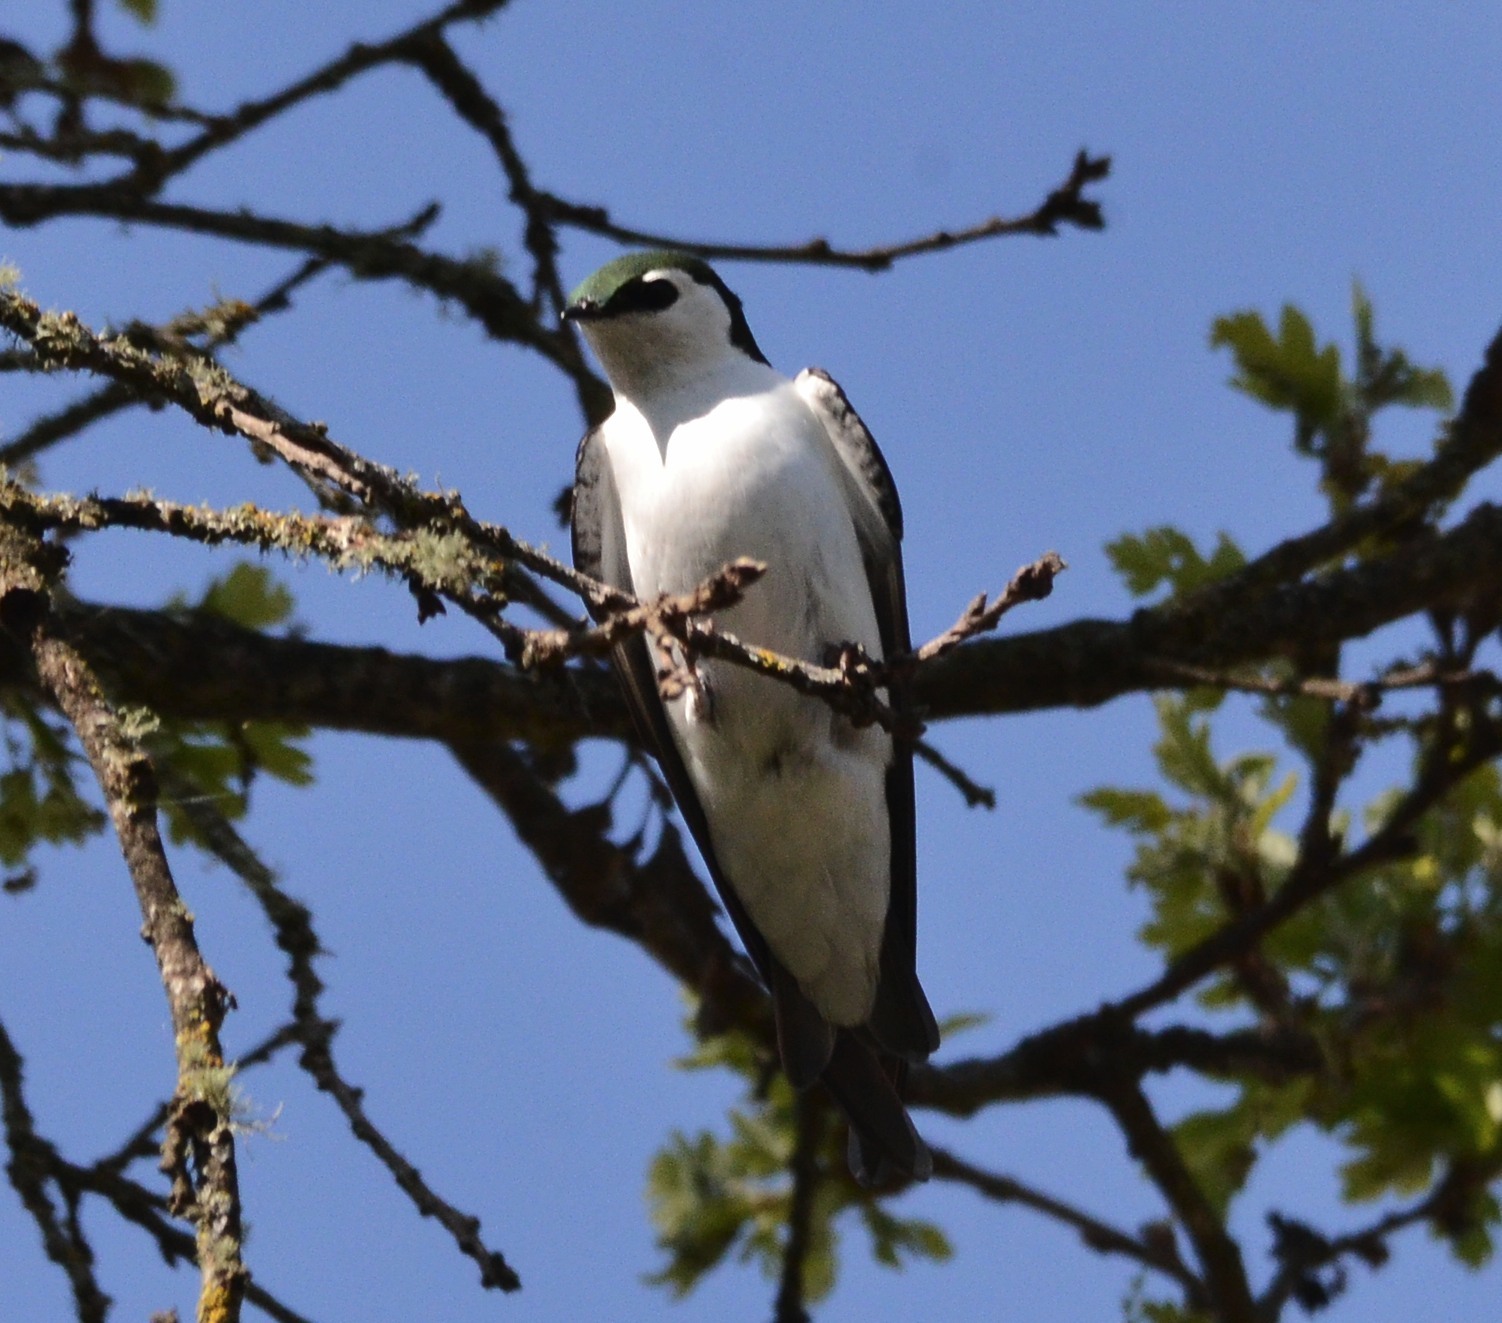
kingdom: Animalia
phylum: Chordata
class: Aves
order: Passeriformes
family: Hirundinidae
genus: Tachycineta
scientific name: Tachycineta thalassina
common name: Violet-green swallow
